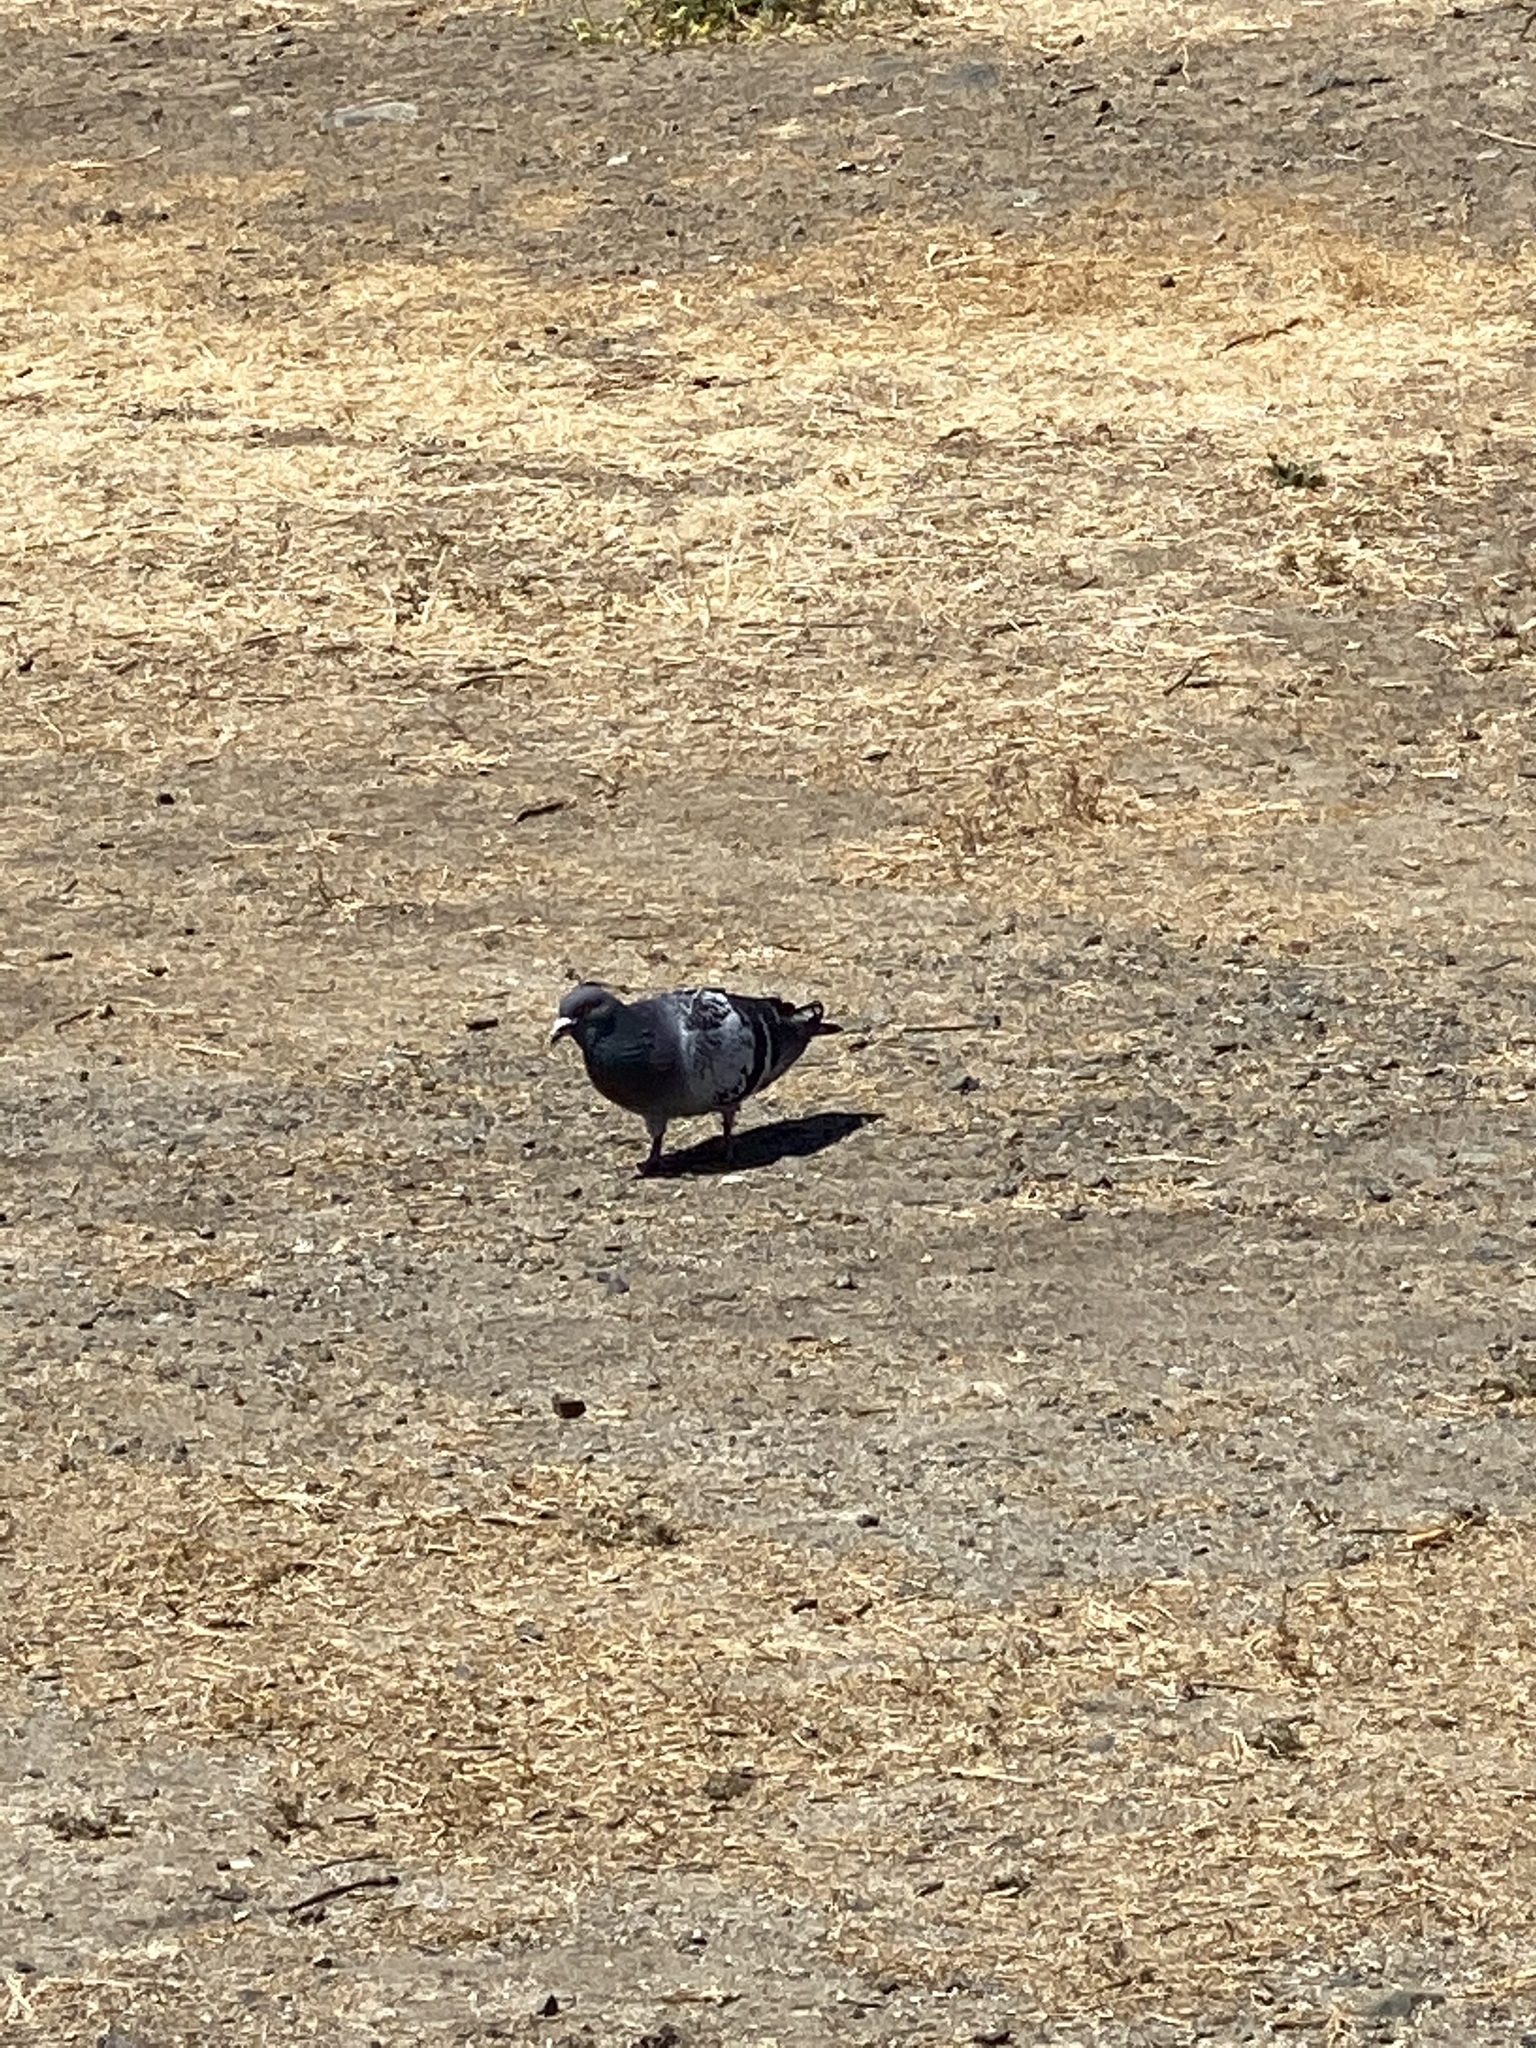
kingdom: Animalia
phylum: Chordata
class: Aves
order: Columbiformes
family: Columbidae
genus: Columba
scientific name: Columba livia
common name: Rock pigeon
